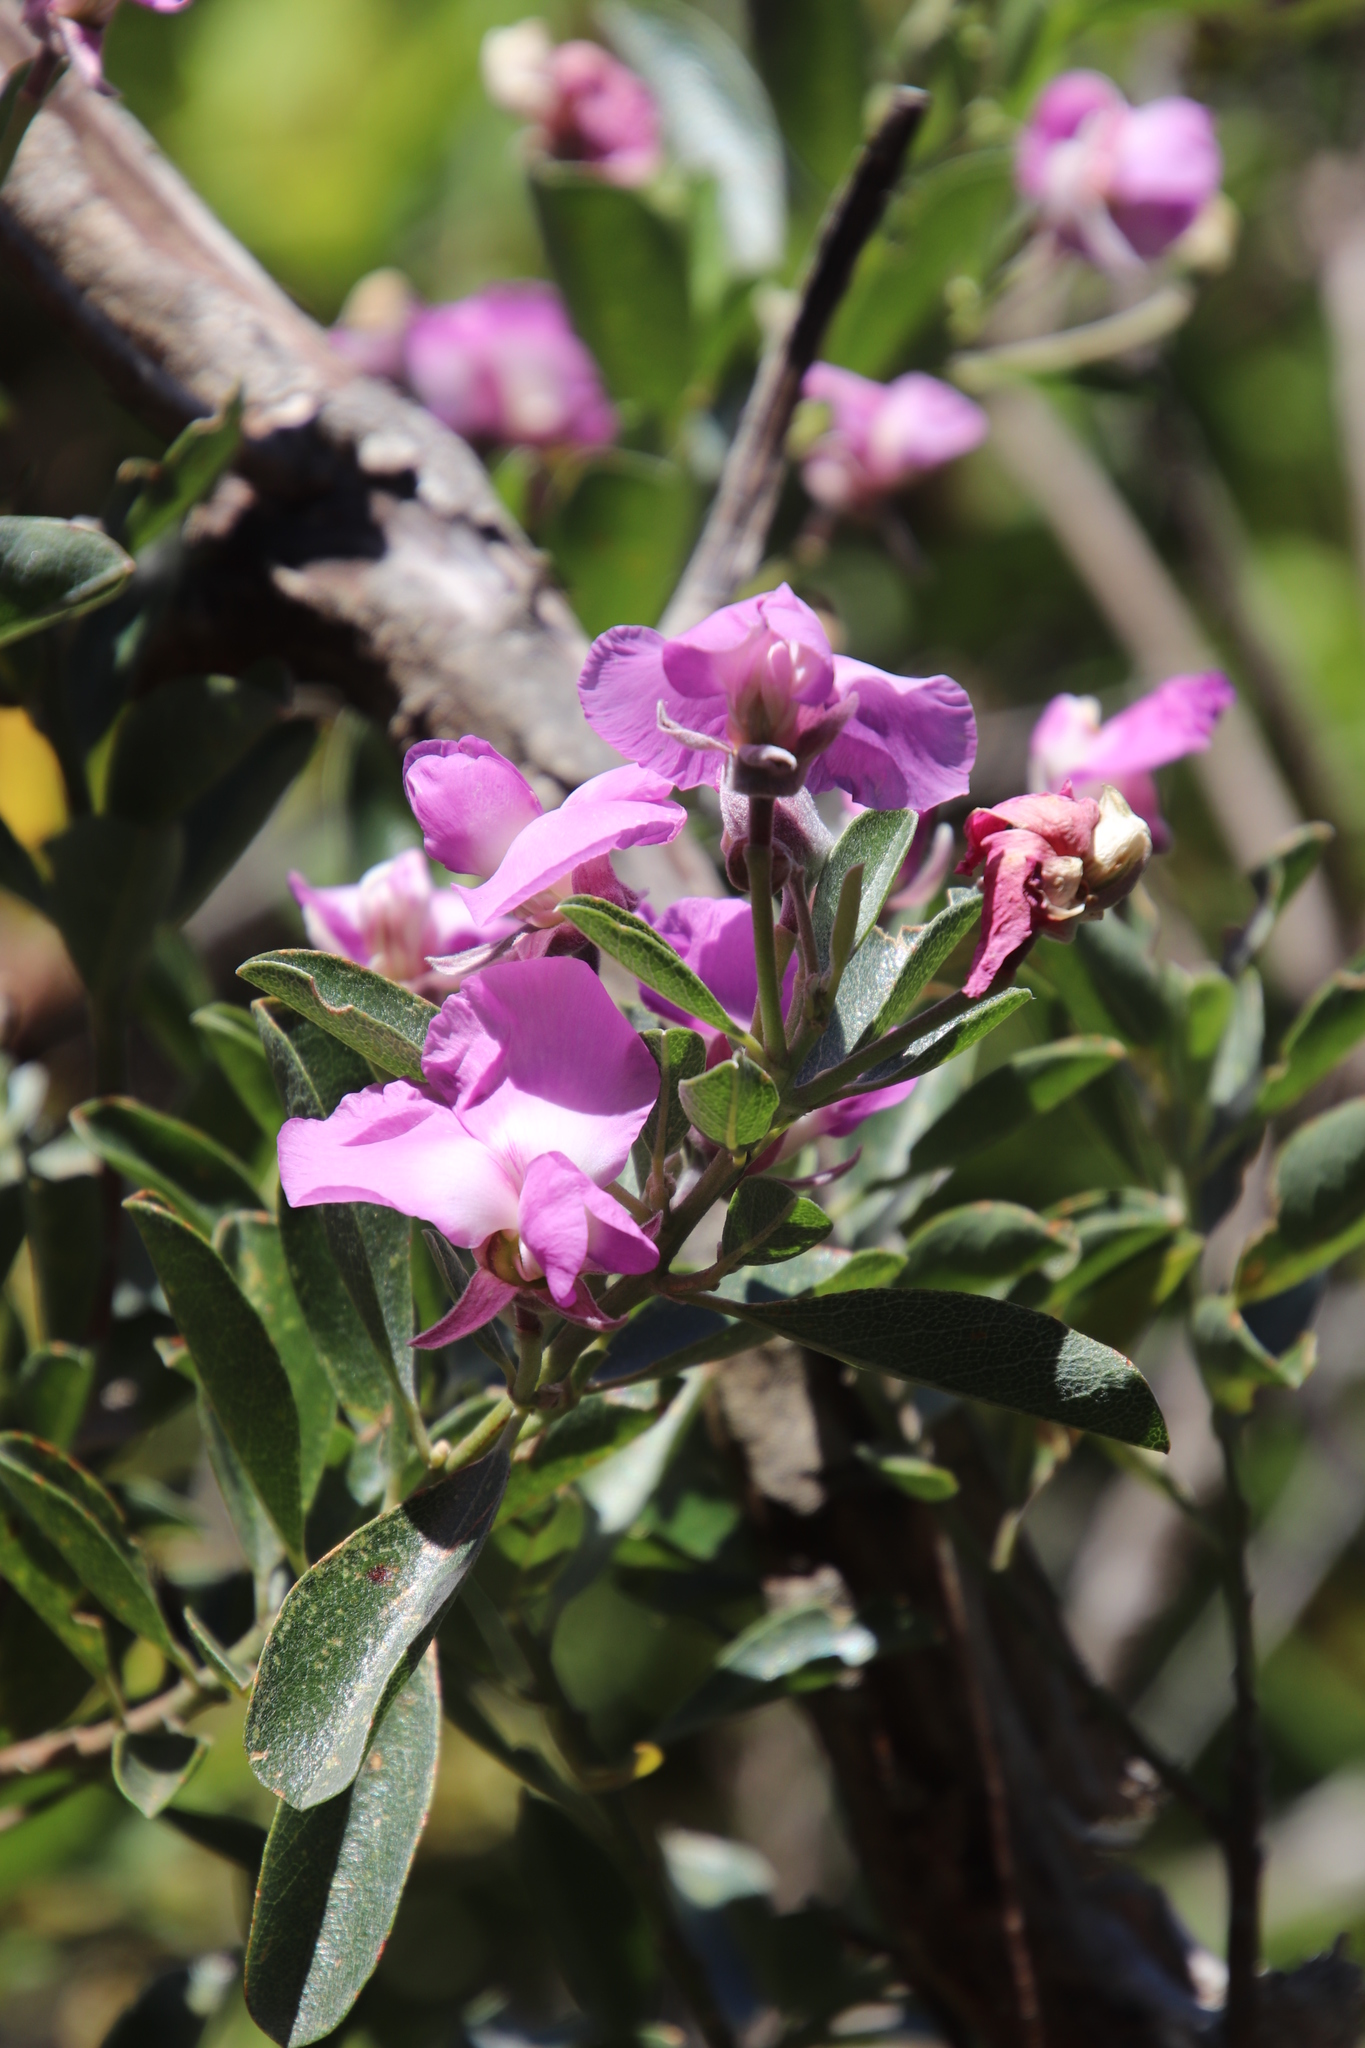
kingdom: Plantae
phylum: Tracheophyta
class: Magnoliopsida
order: Fabales
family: Fabaceae
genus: Podalyria
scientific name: Podalyria calyptrata
